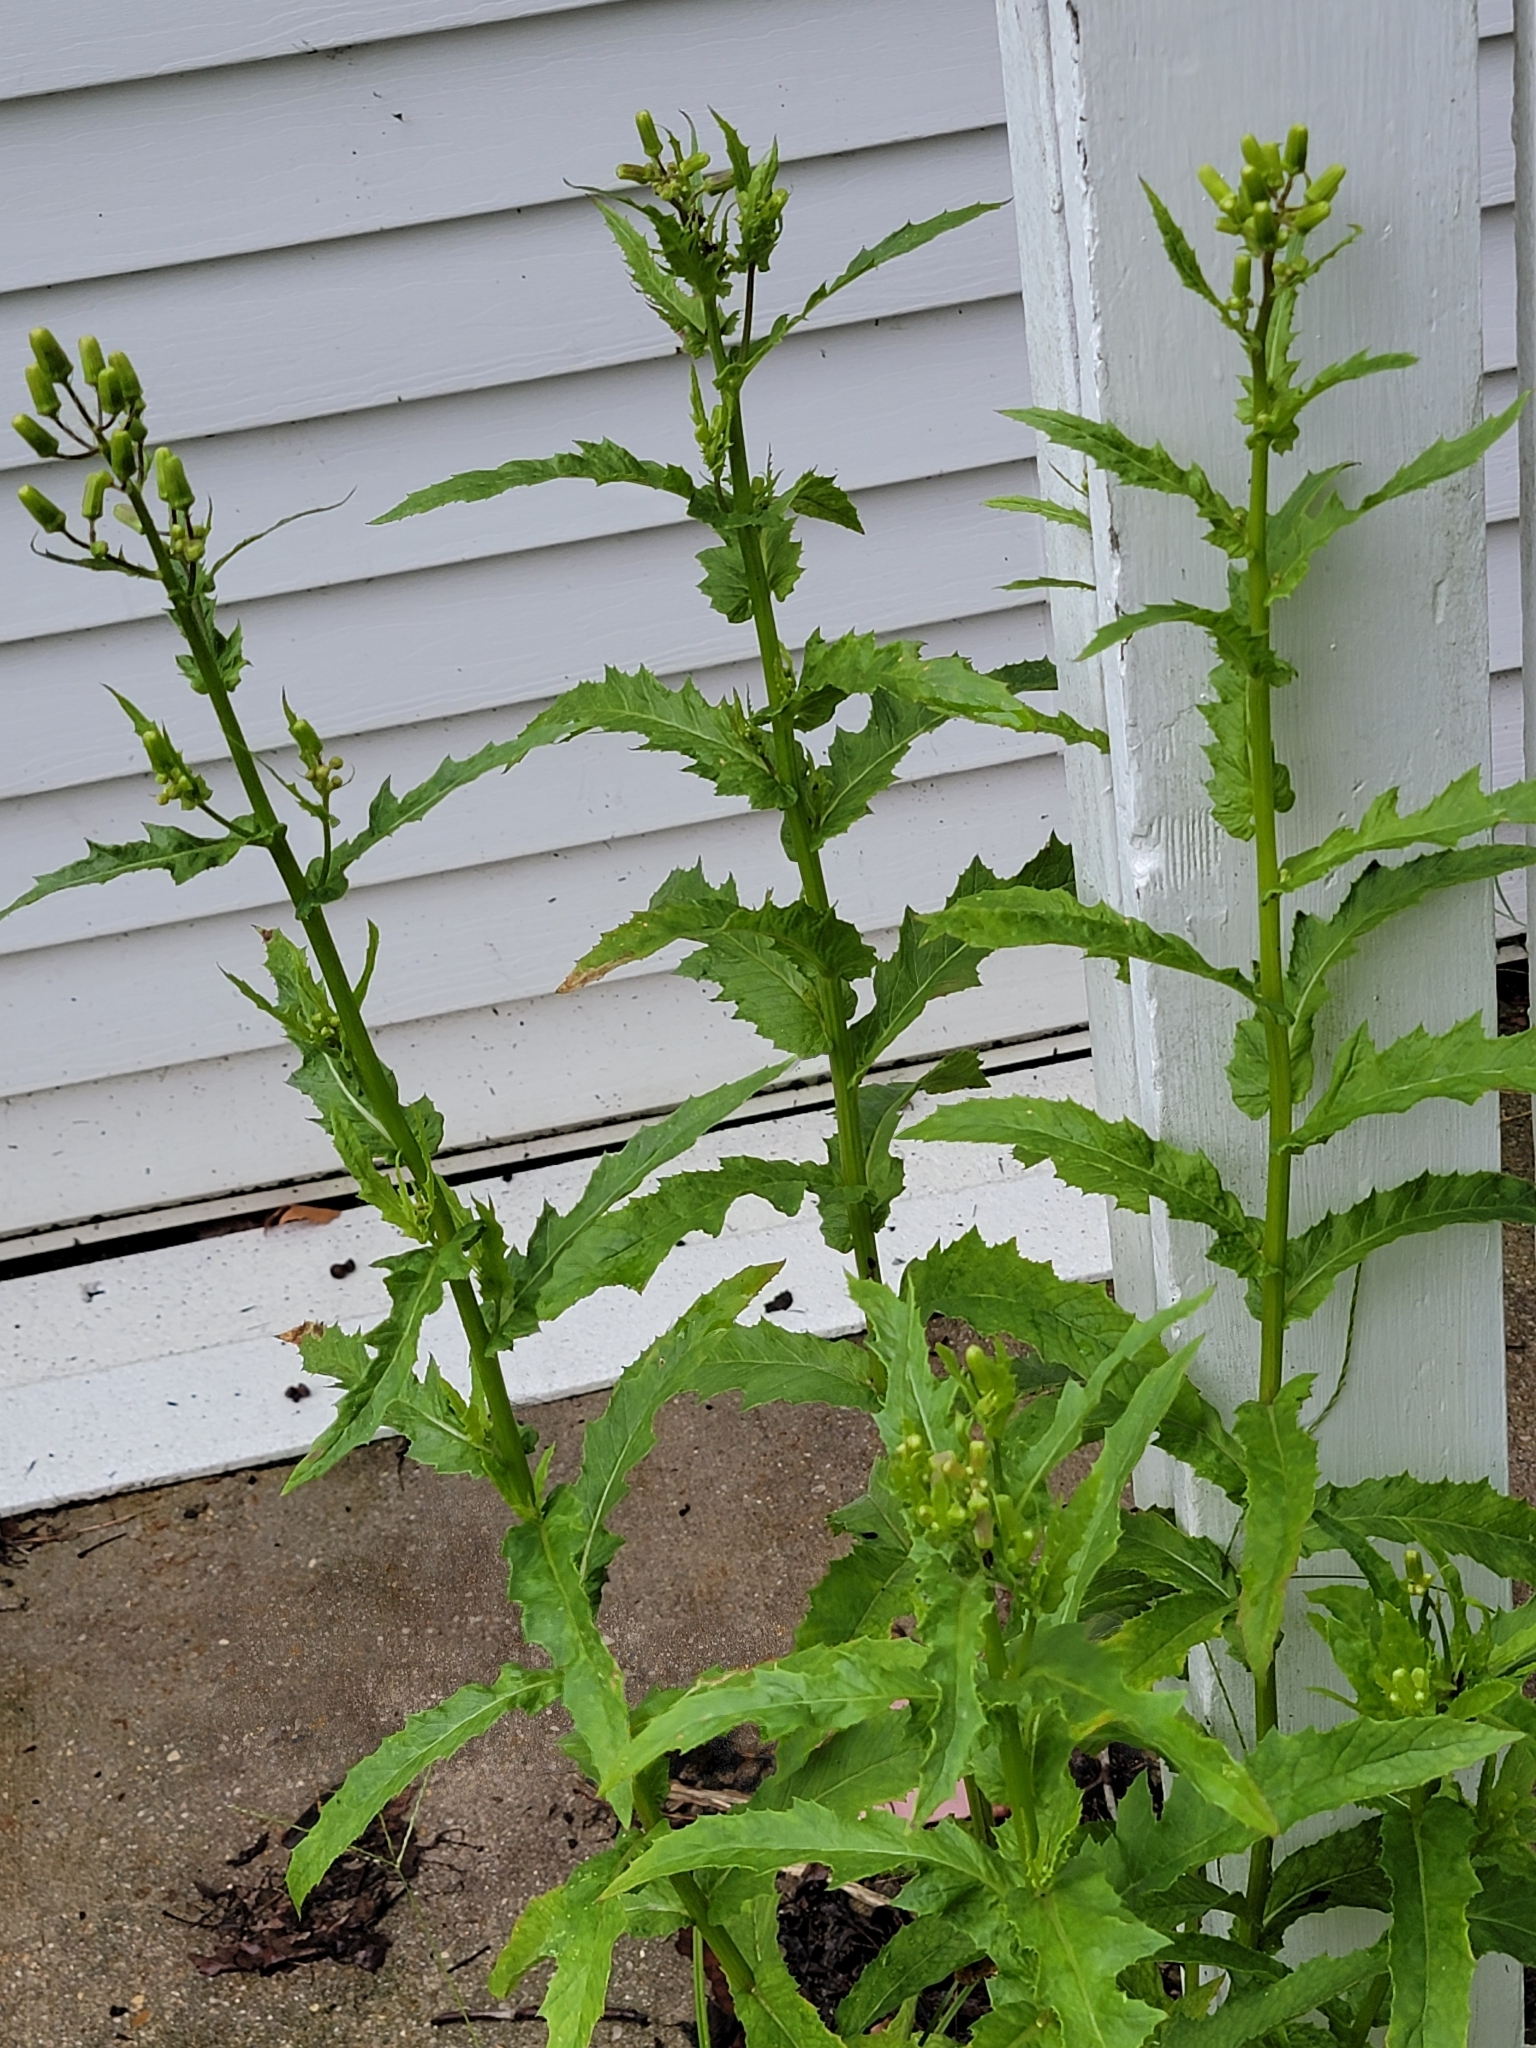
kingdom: Plantae
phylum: Tracheophyta
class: Magnoliopsida
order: Asterales
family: Asteraceae
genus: Erechtites
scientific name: Erechtites hieraciifolius
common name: American burnweed
